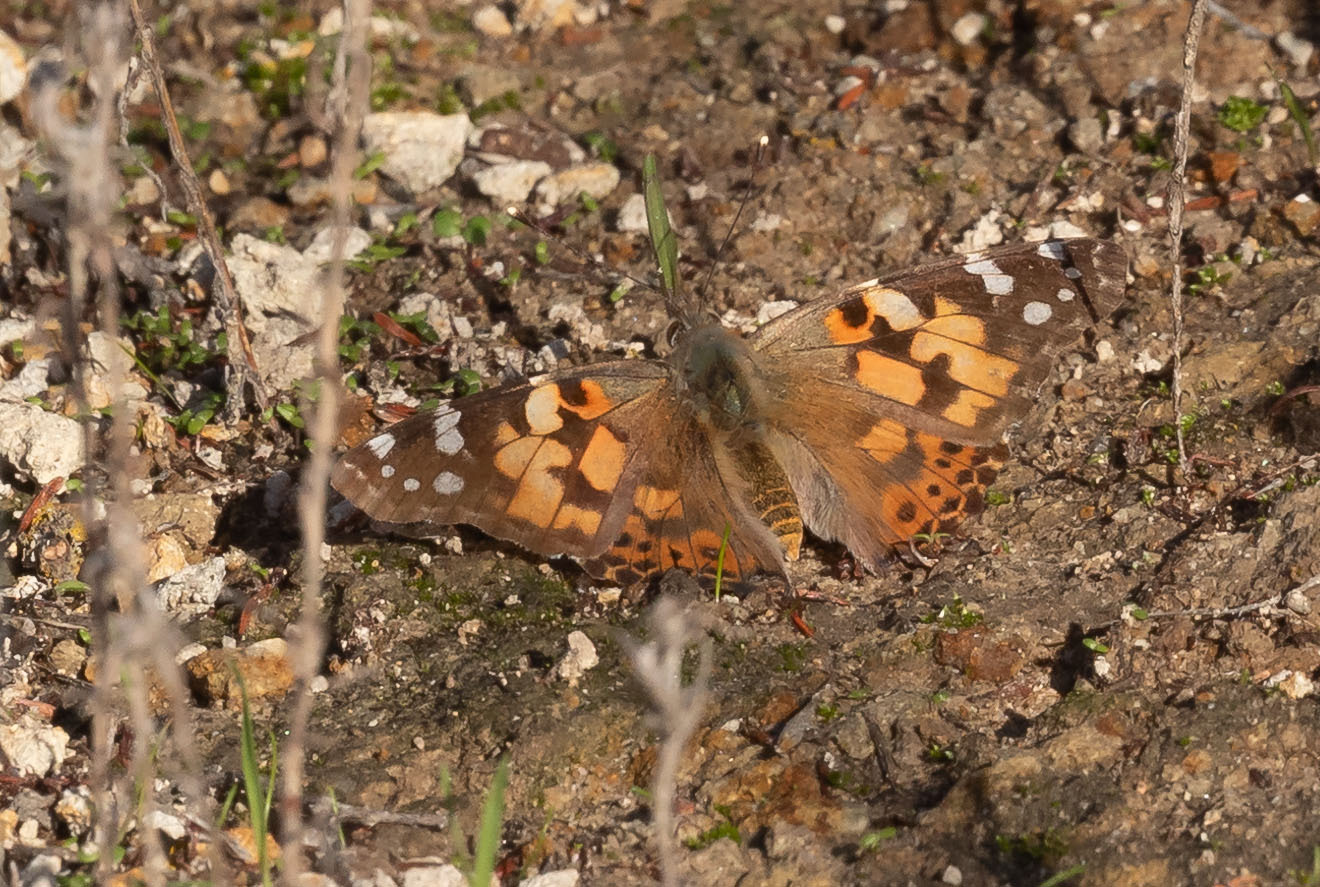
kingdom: Animalia
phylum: Arthropoda
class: Insecta
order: Lepidoptera
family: Nymphalidae
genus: Vanessa
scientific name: Vanessa cardui
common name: Painted lady
